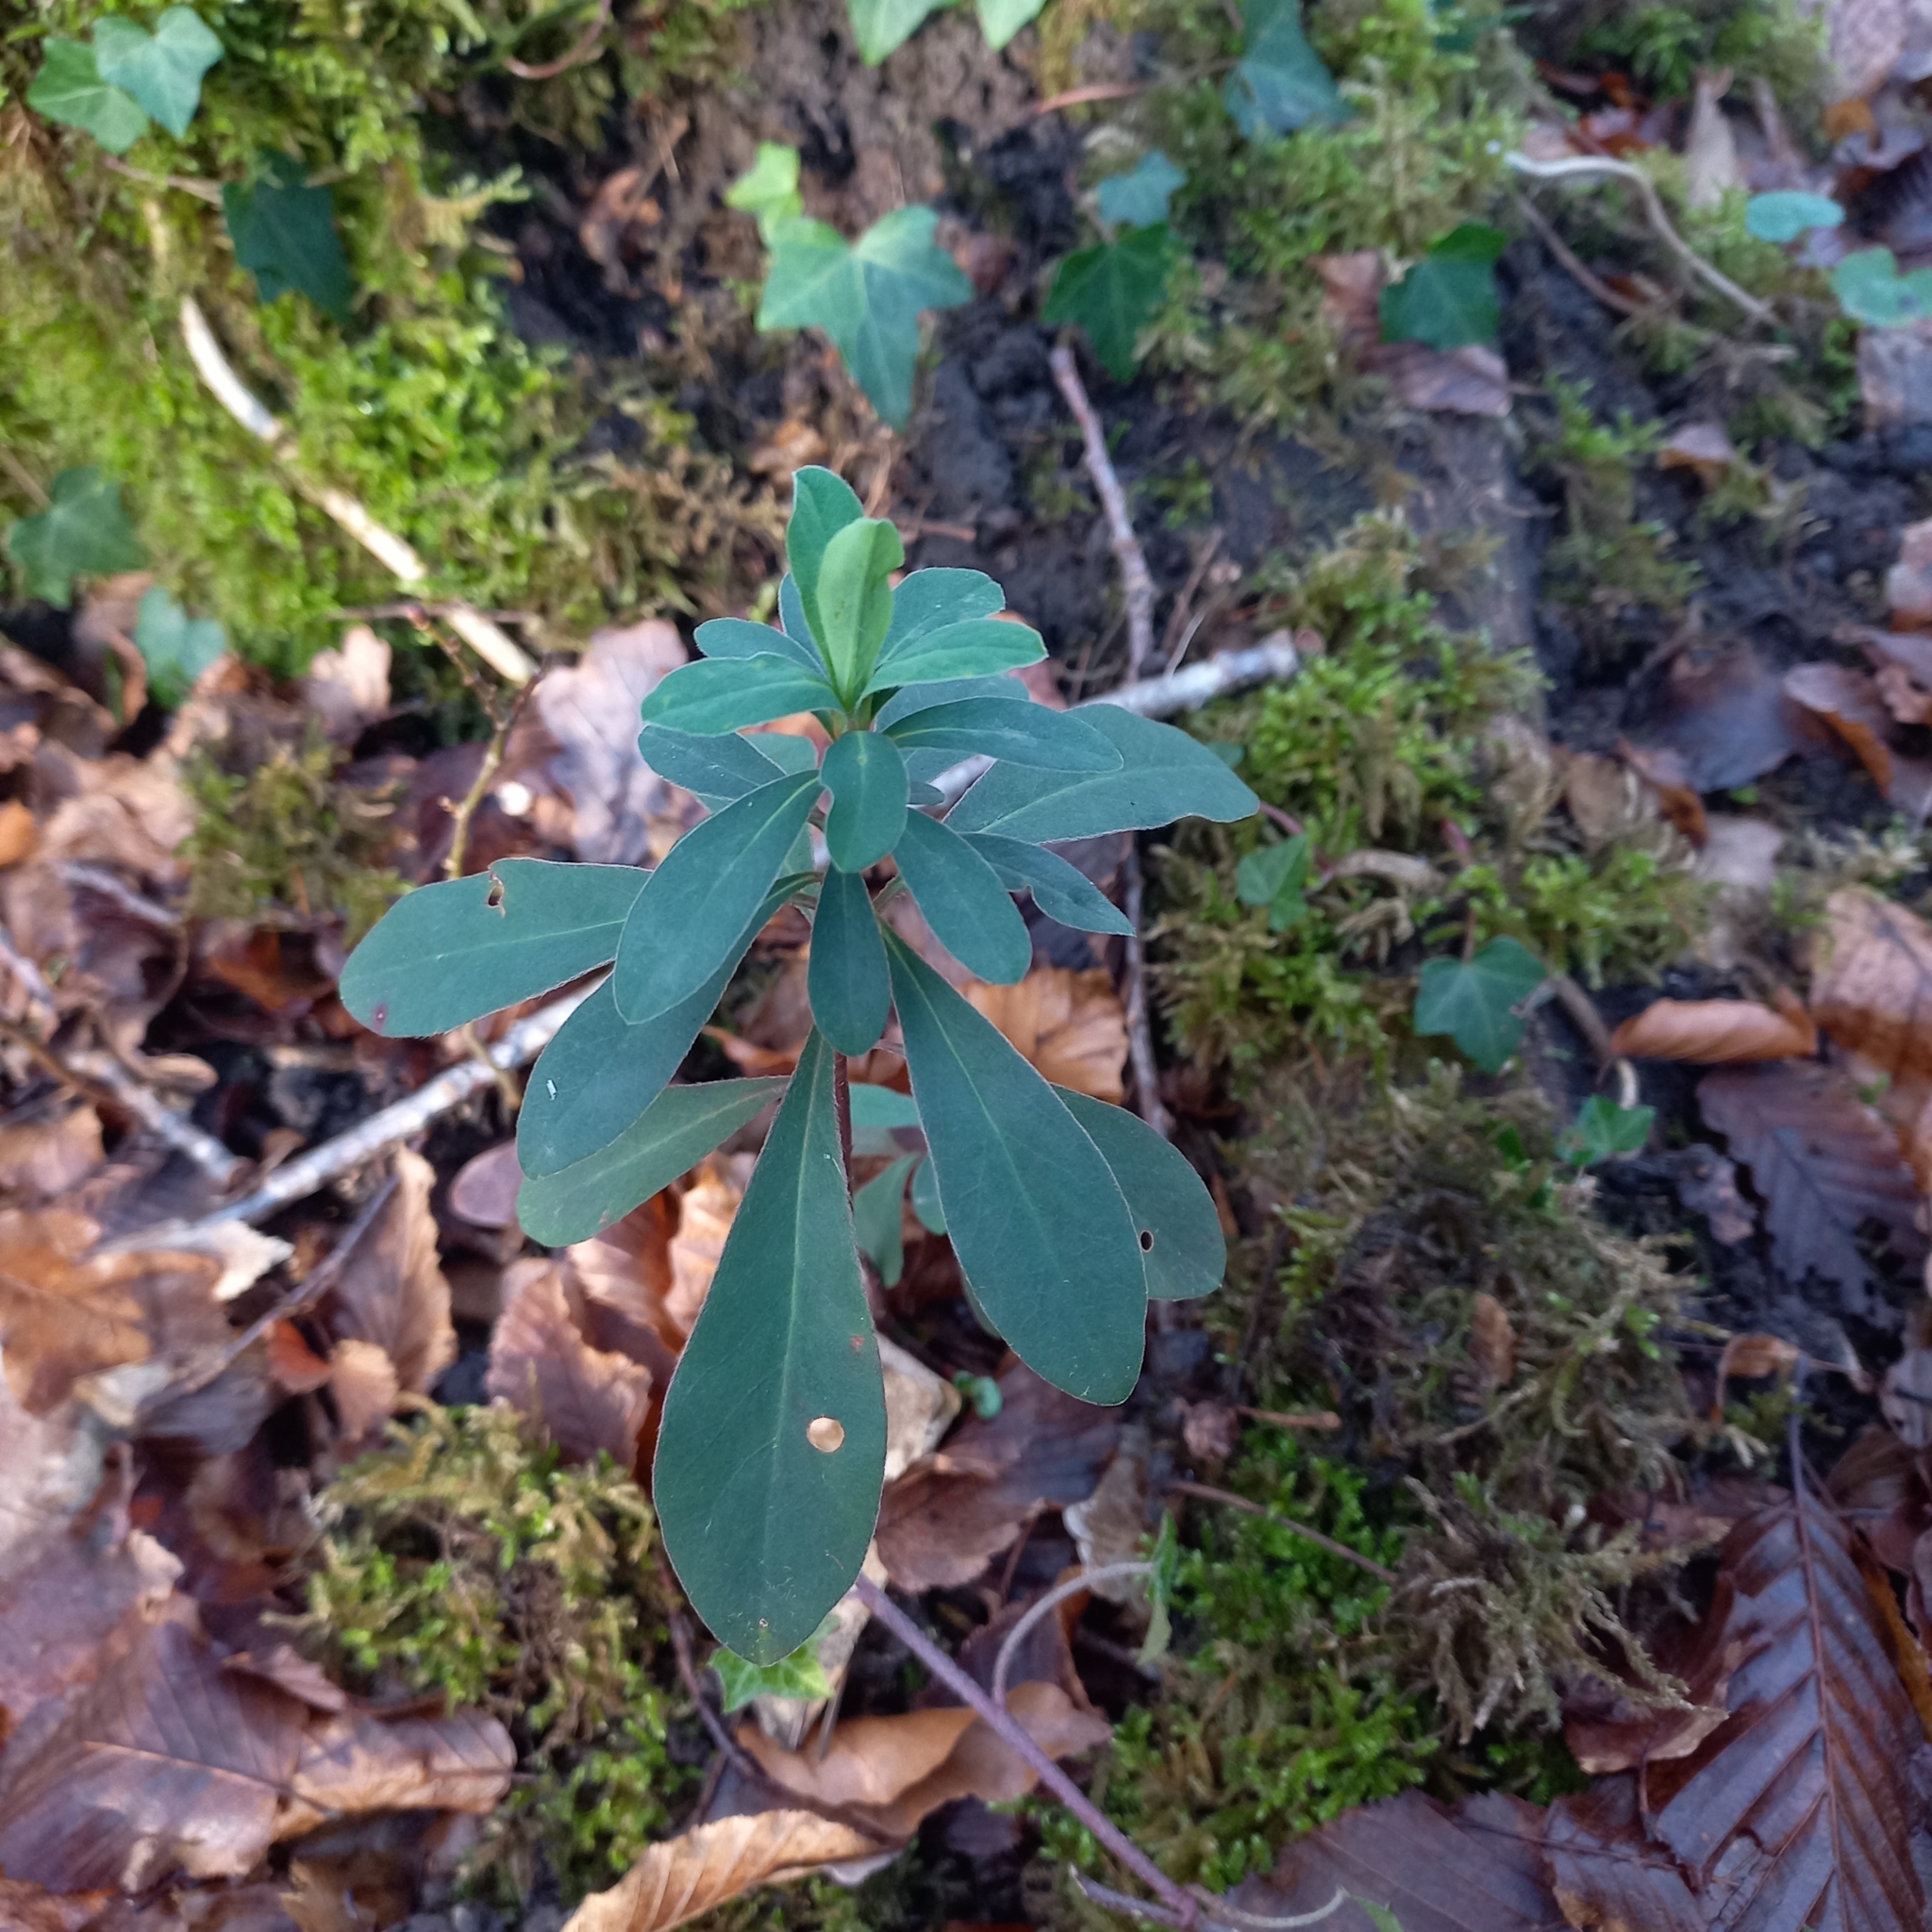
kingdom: Plantae
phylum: Tracheophyta
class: Magnoliopsida
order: Malpighiales
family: Euphorbiaceae
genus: Euphorbia
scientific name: Euphorbia amygdaloides
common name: Wood spurge
